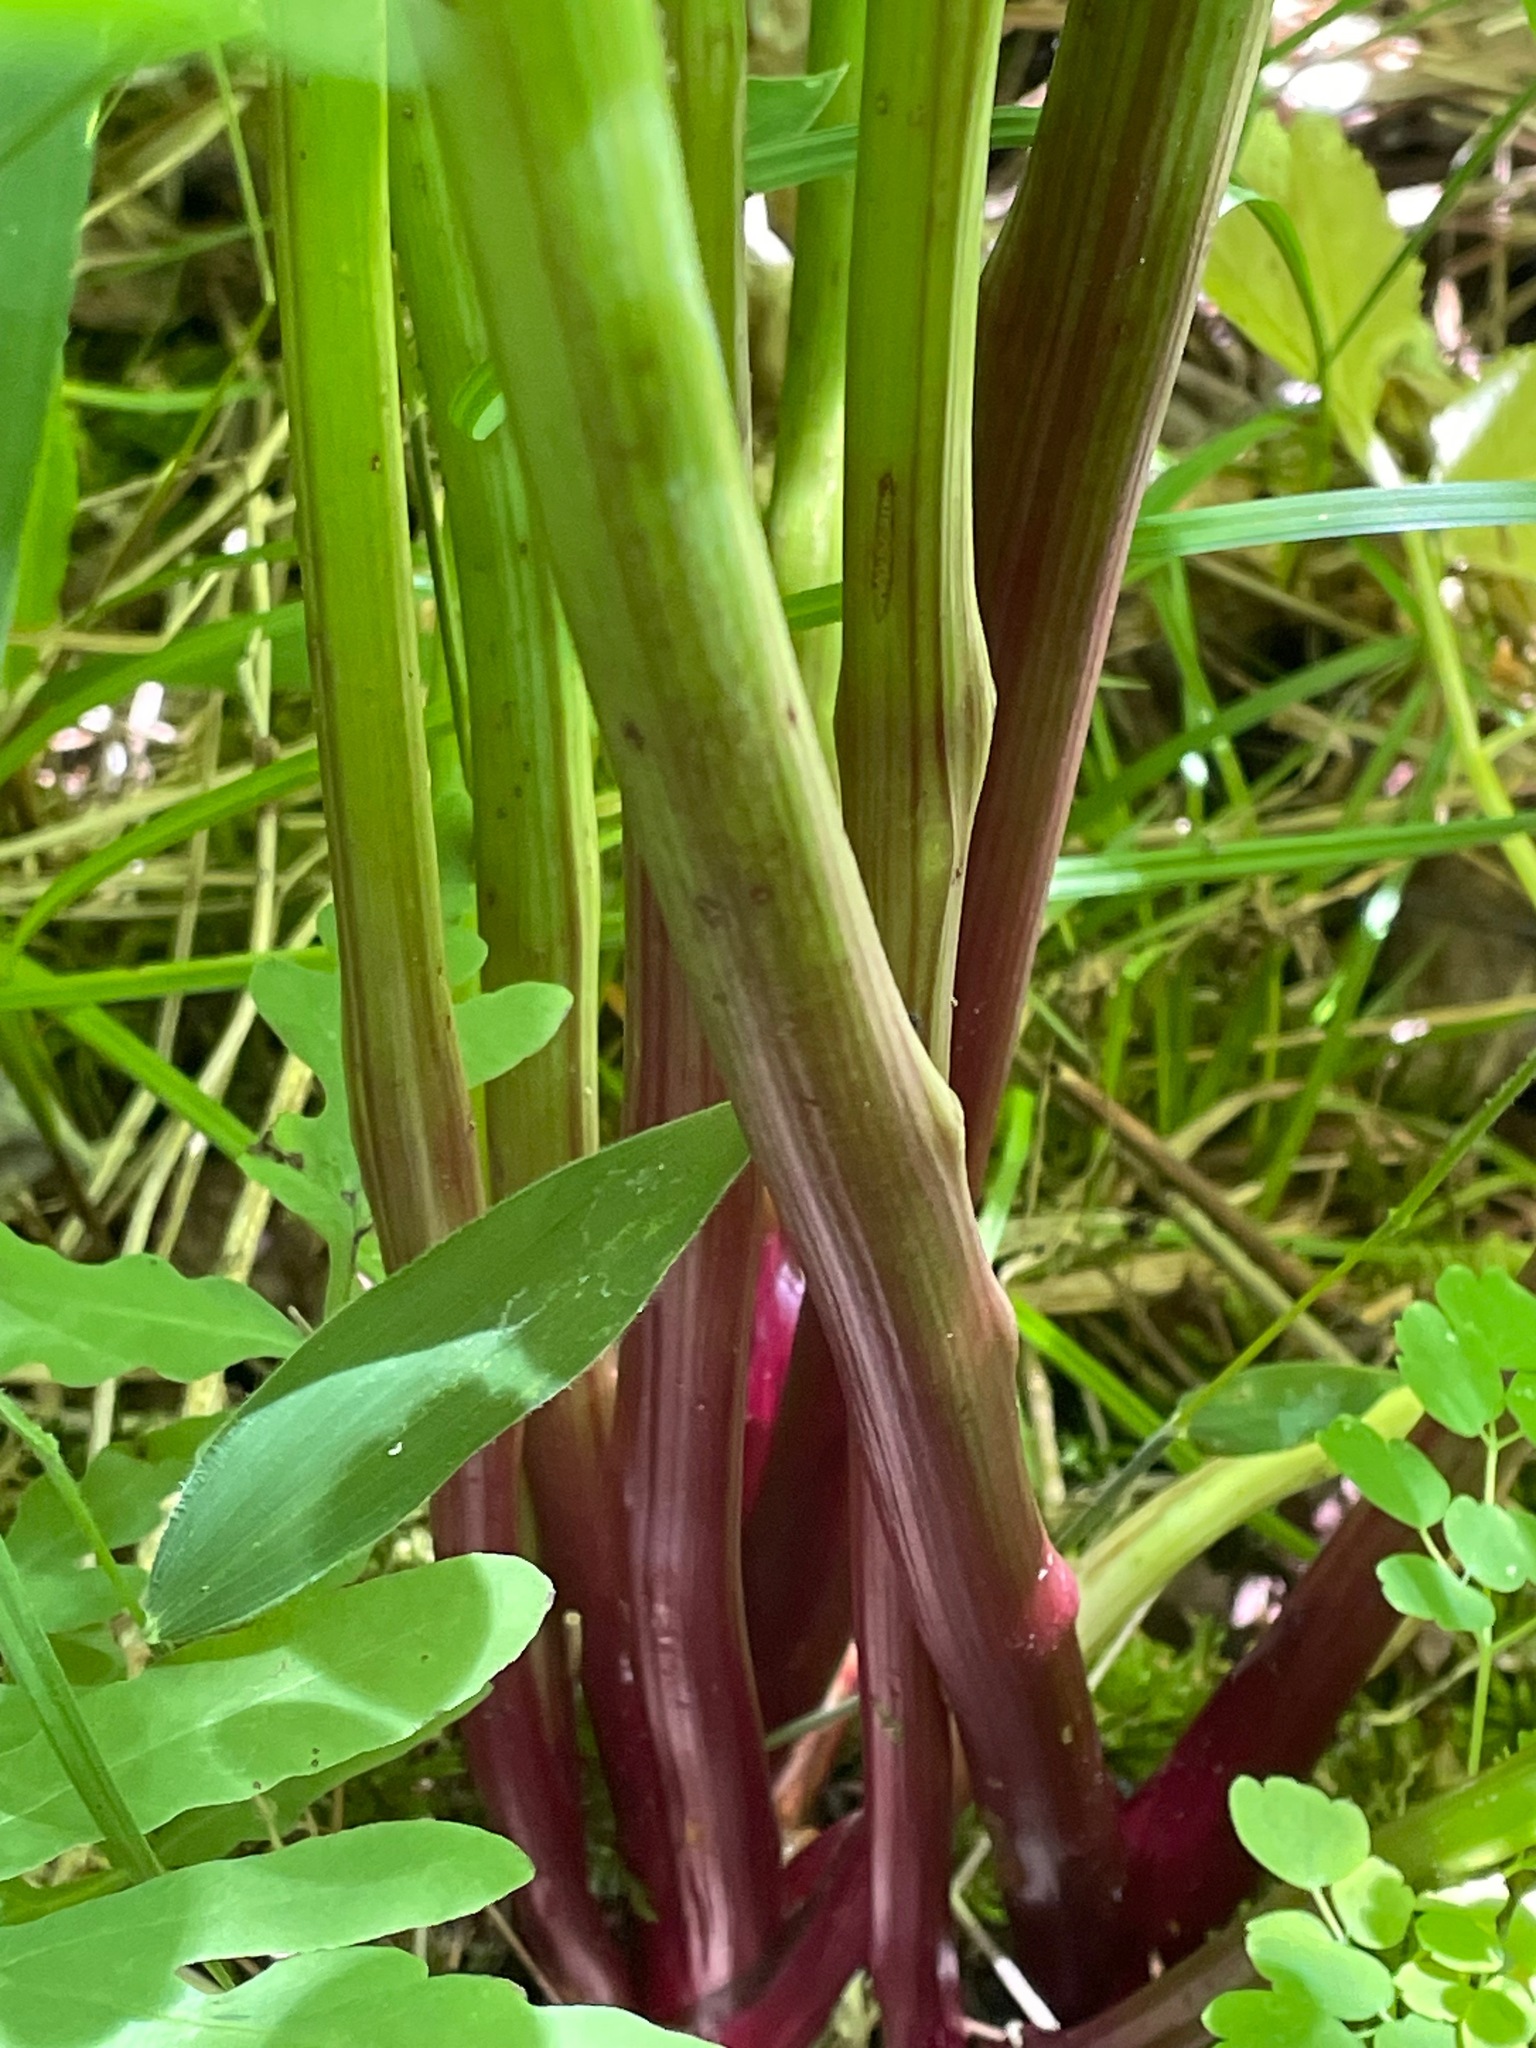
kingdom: Plantae
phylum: Tracheophyta
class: Magnoliopsida
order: Apiales
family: Apiaceae
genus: Angelica
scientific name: Angelica atropurpurea
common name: Great angelica
